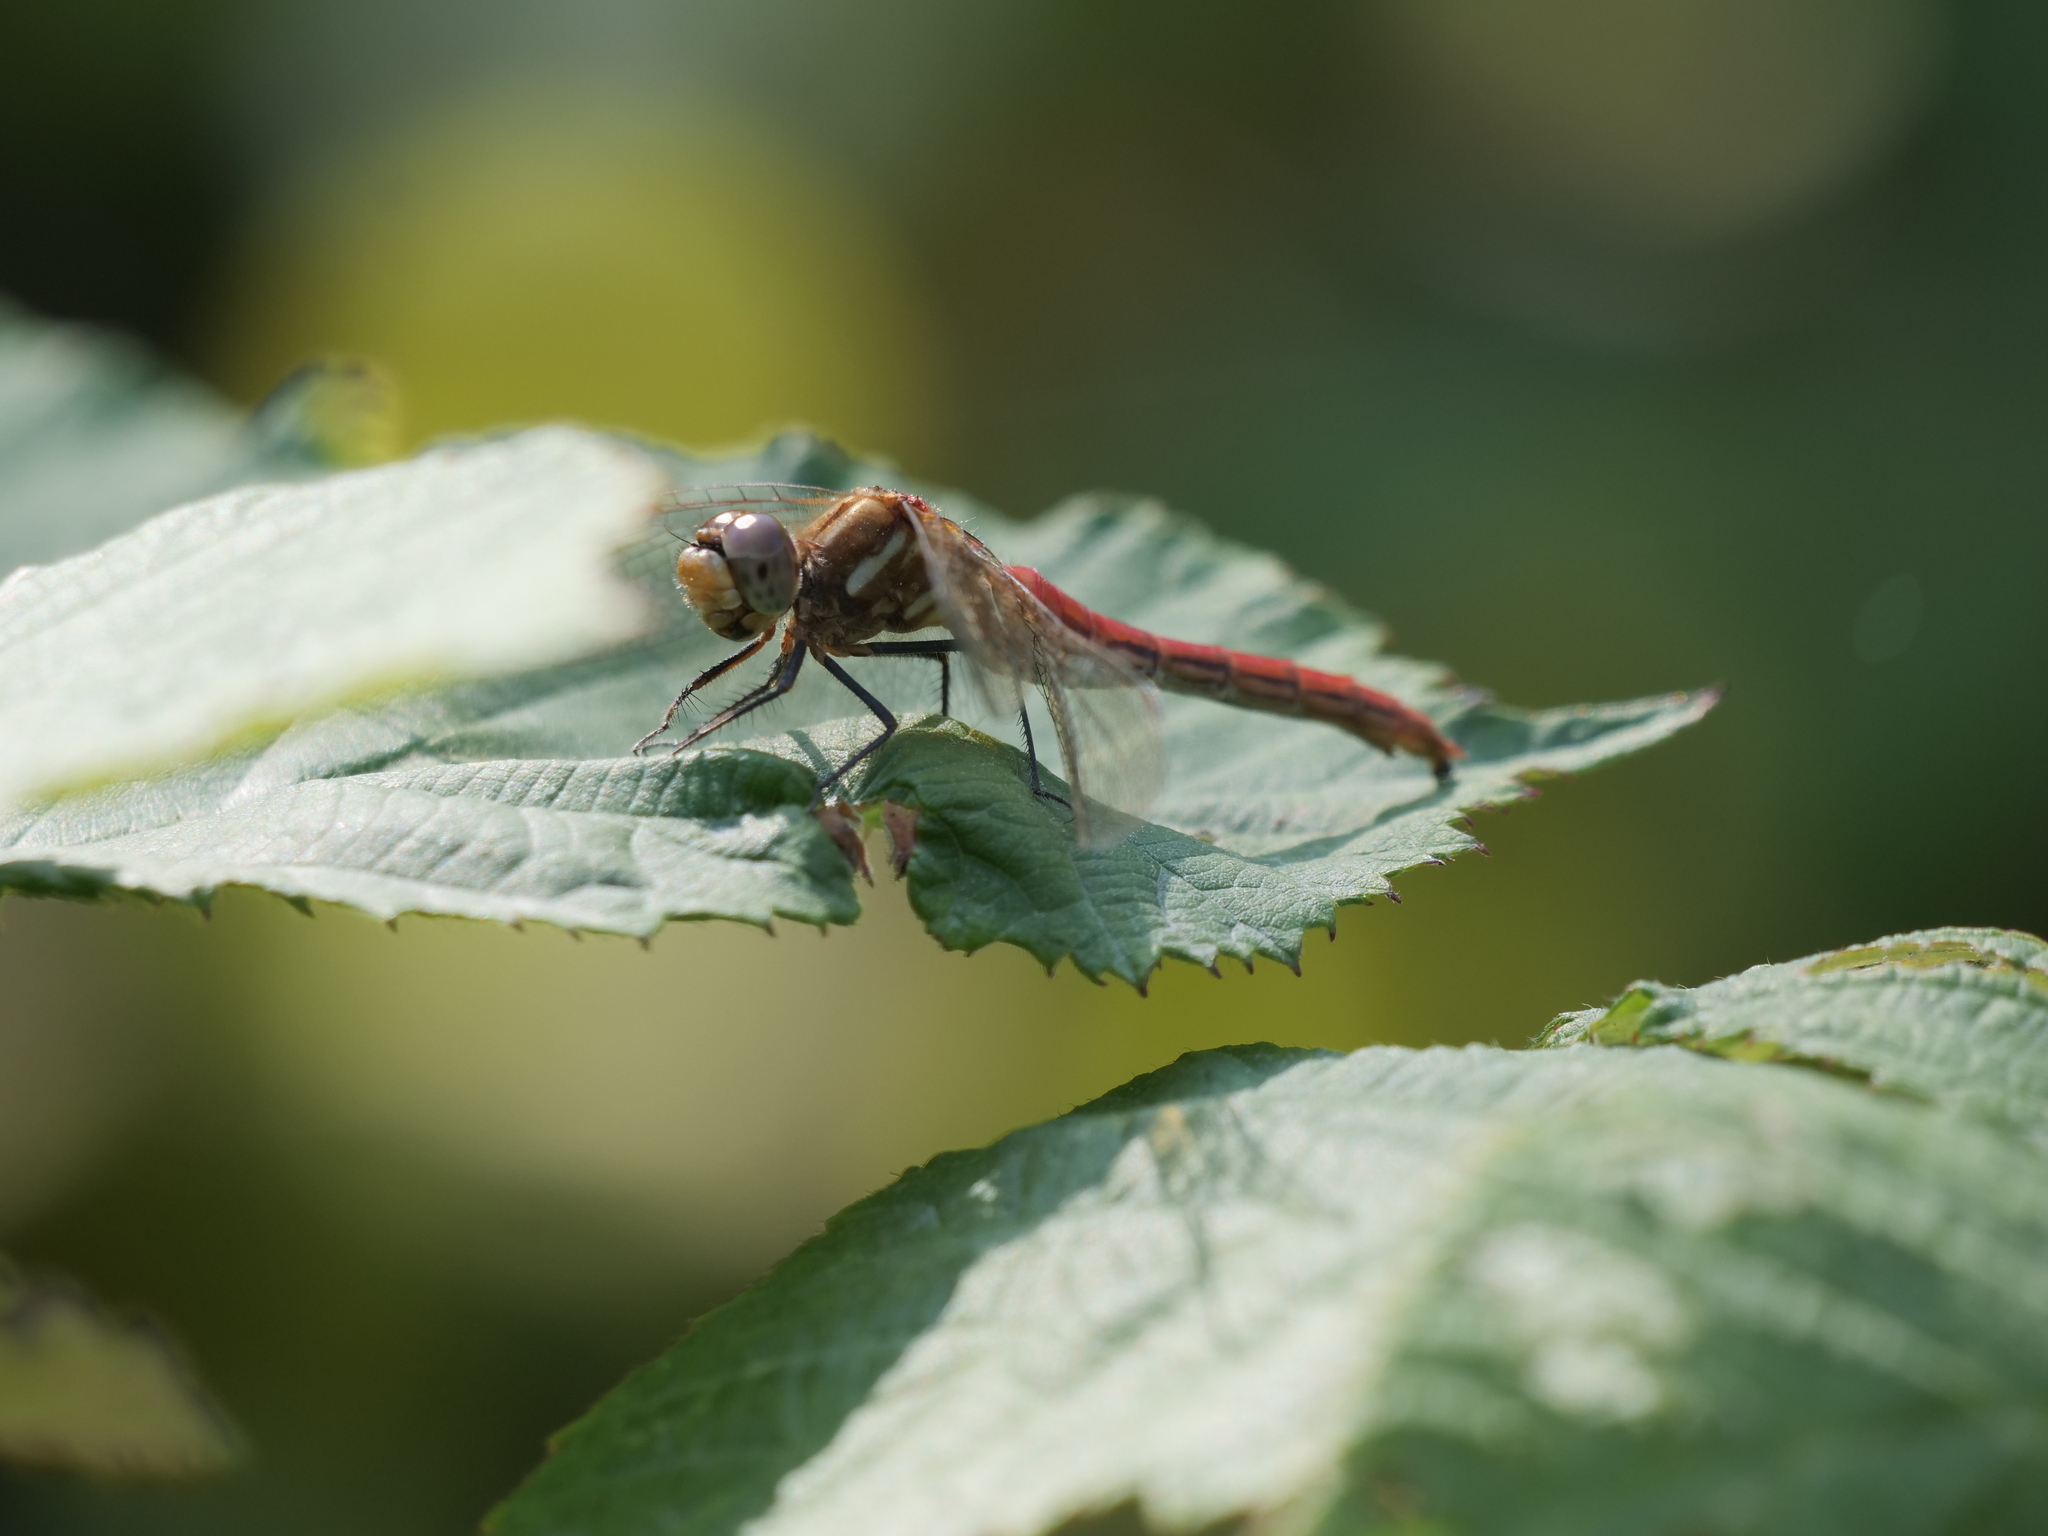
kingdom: Animalia
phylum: Arthropoda
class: Insecta
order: Odonata
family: Libellulidae
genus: Sympetrum
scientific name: Sympetrum pallipes
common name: Striped meadowhawk
